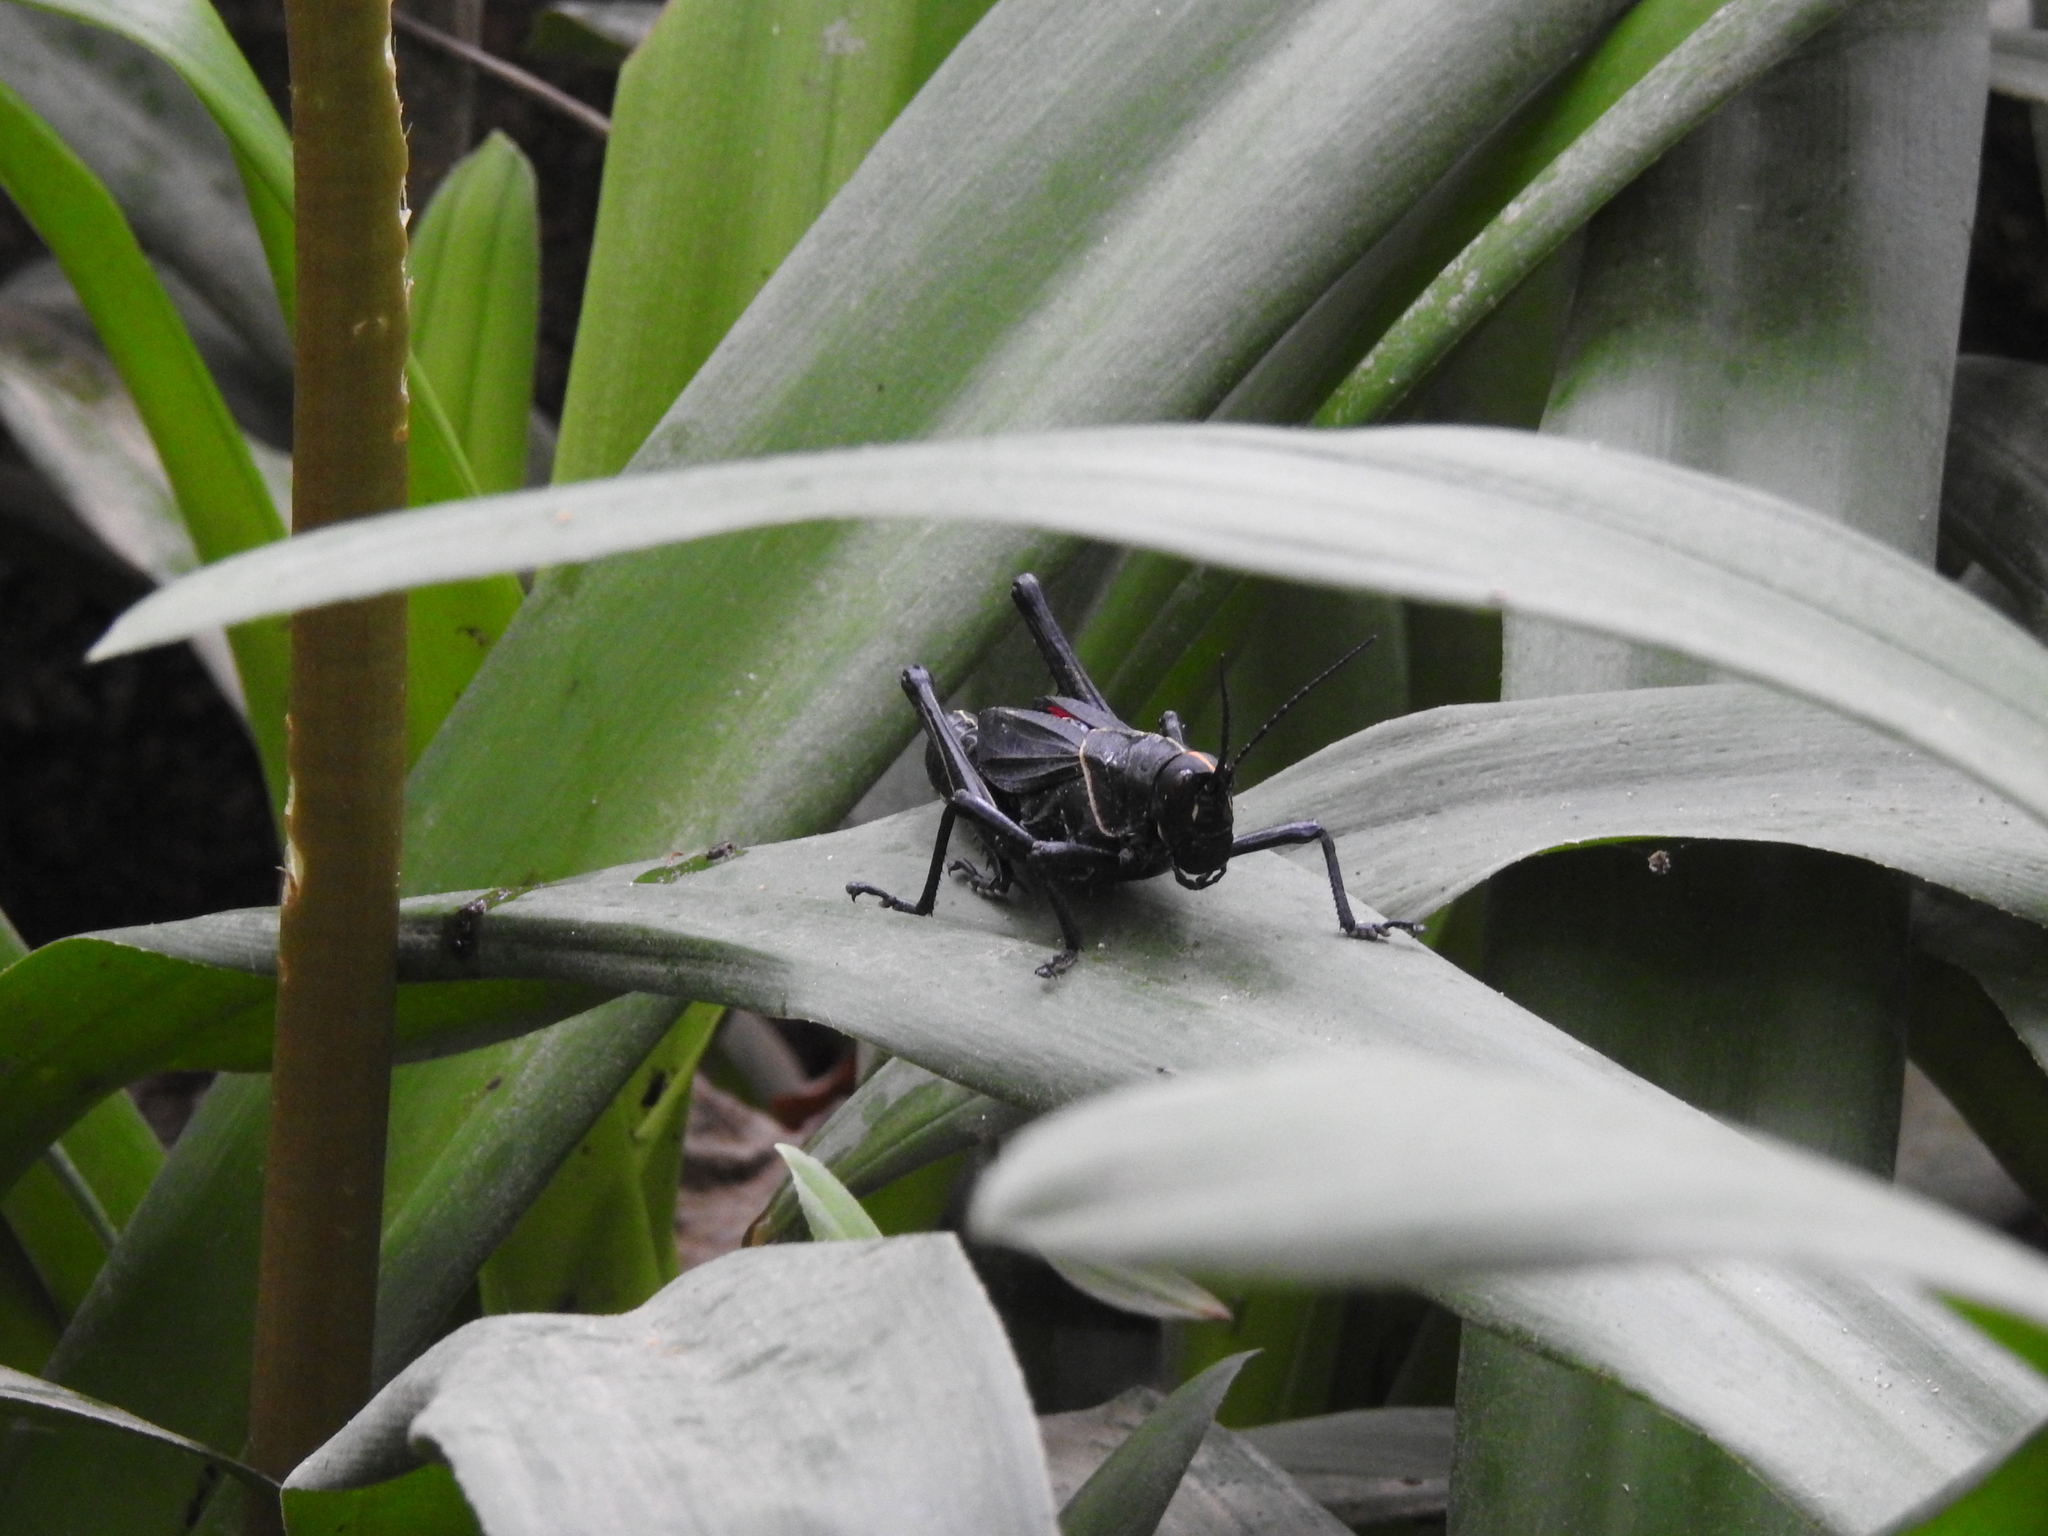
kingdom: Animalia
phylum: Arthropoda
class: Insecta
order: Orthoptera
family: Romaleidae
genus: Romalea
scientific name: Romalea microptera
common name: Eastern lubber grasshopper
